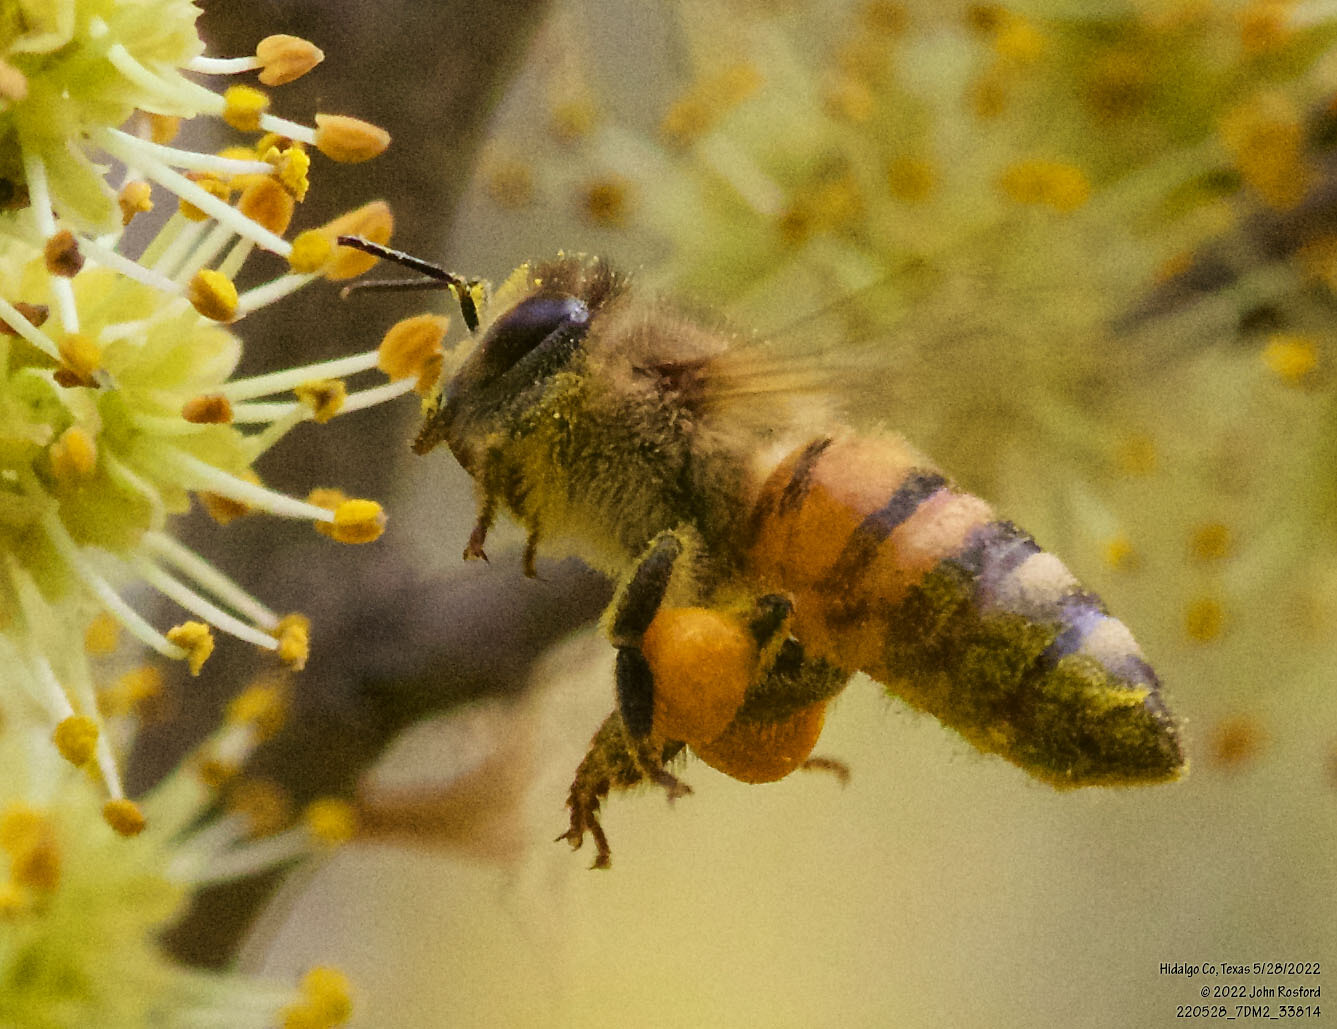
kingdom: Animalia
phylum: Arthropoda
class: Insecta
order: Hymenoptera
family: Apidae
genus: Apis
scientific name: Apis mellifera
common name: Honey bee
